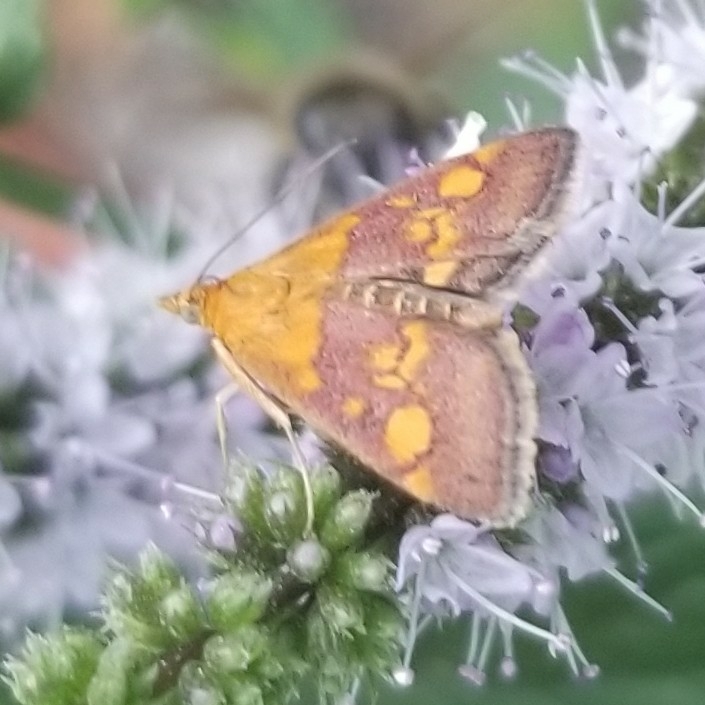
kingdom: Animalia
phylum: Arthropoda
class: Insecta
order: Lepidoptera
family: Crambidae
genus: Pyrausta
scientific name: Pyrausta aurata
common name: Small purple & gold
